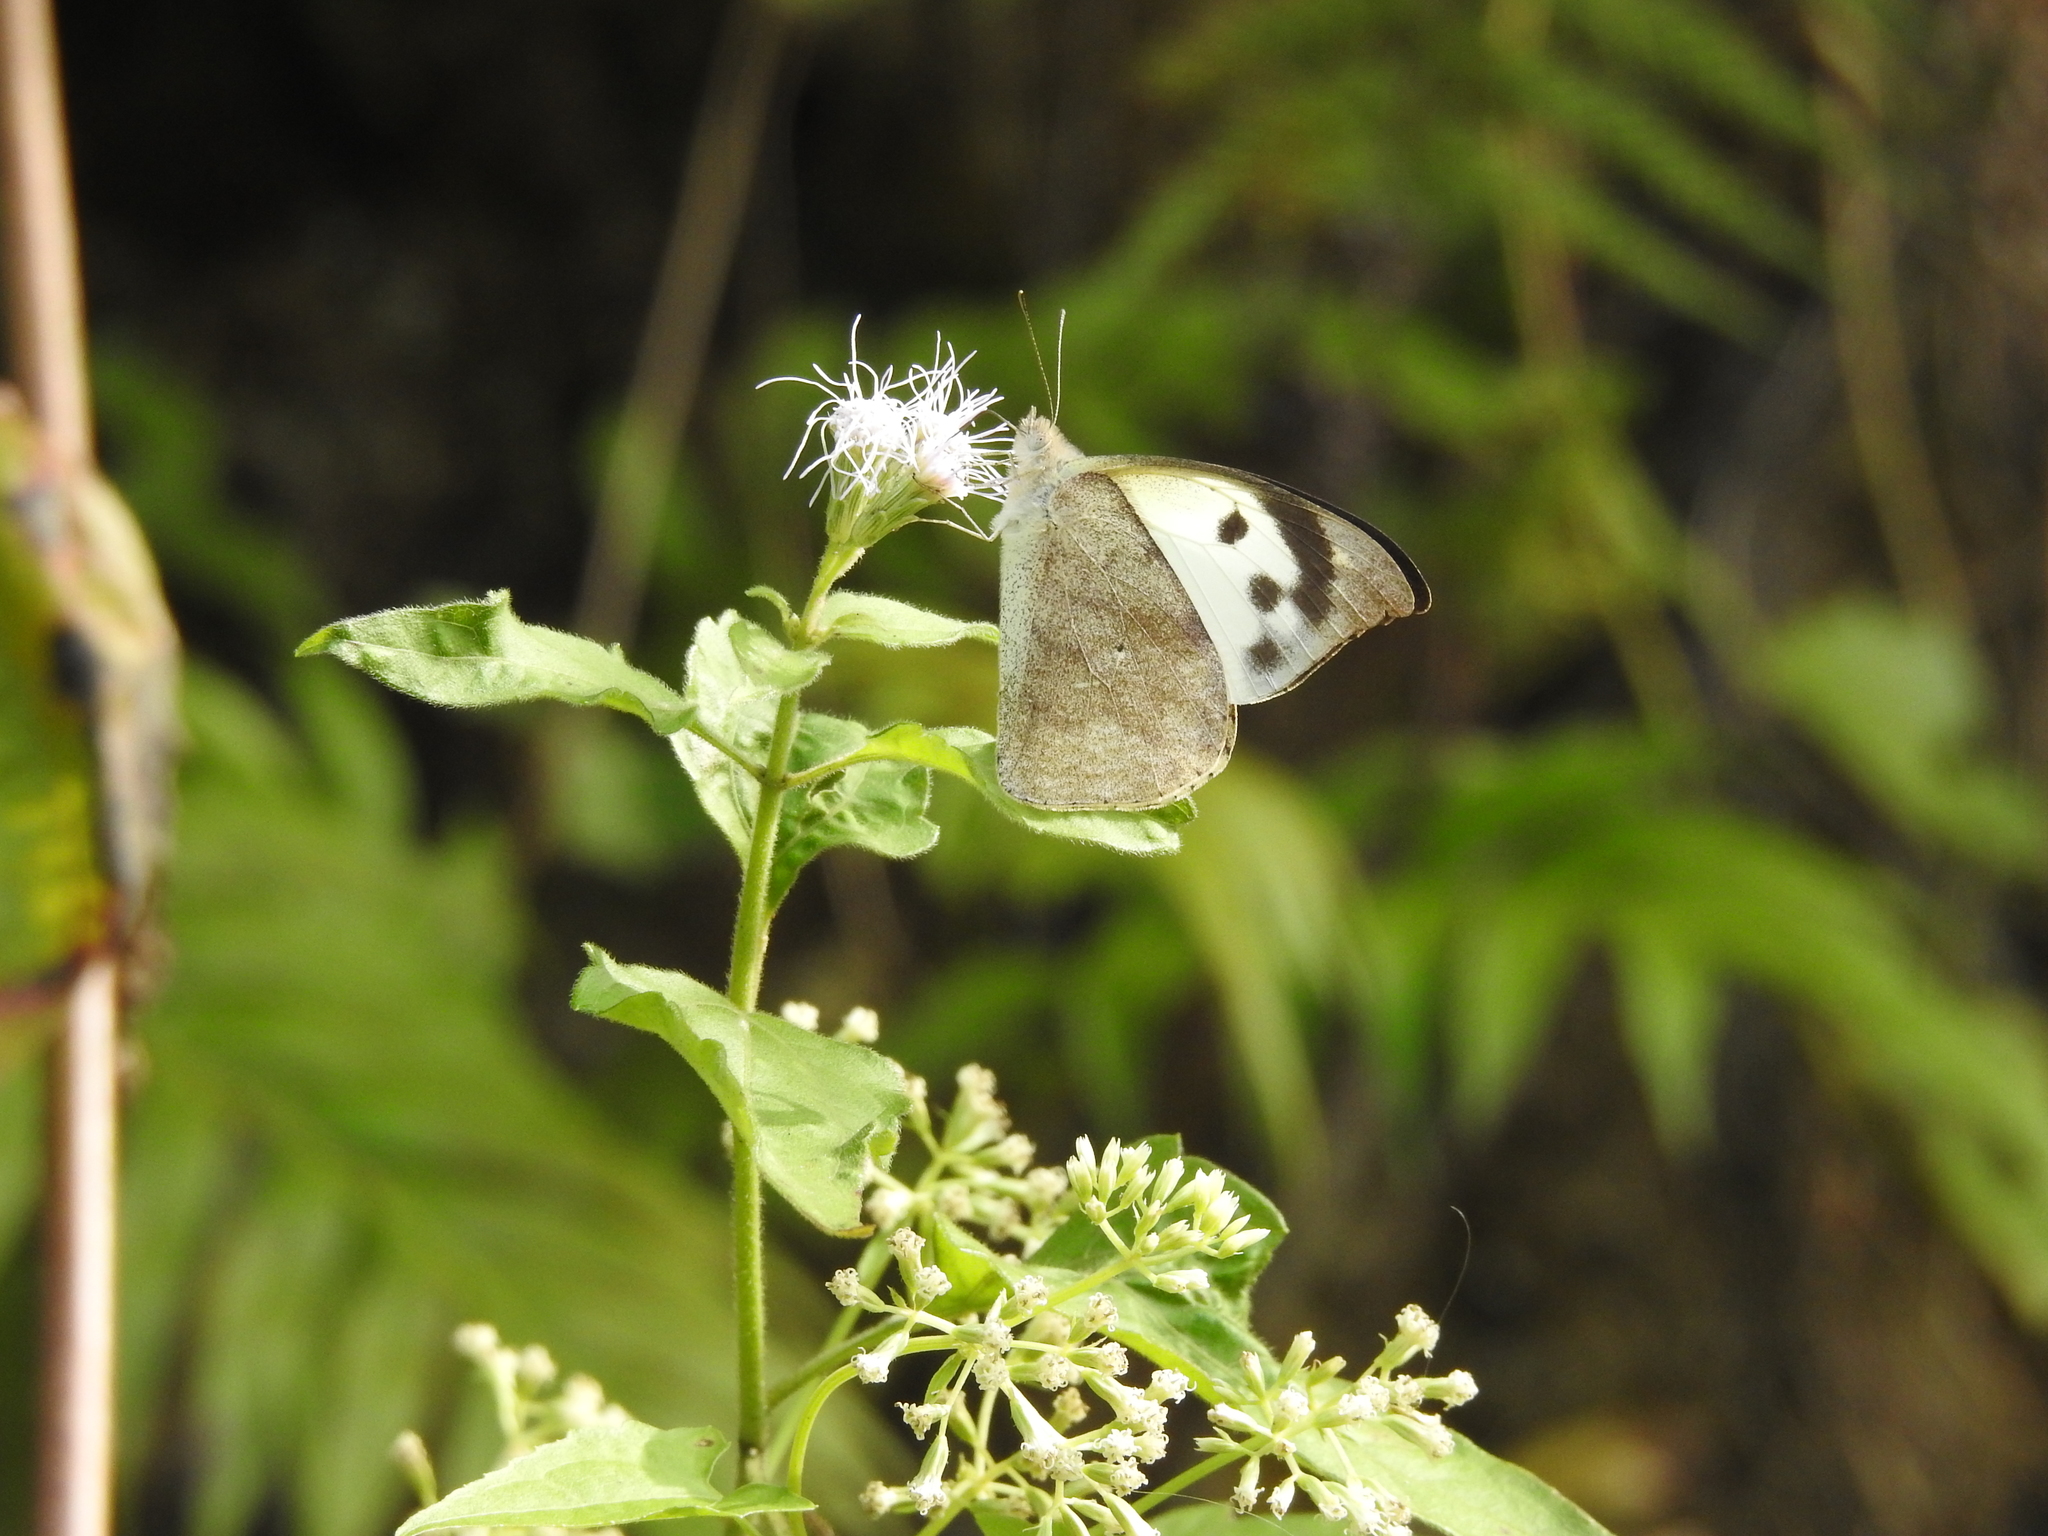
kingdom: Animalia
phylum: Arthropoda
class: Insecta
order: Lepidoptera
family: Pieridae
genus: Appias
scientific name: Appias lalage
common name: Spot puffin
